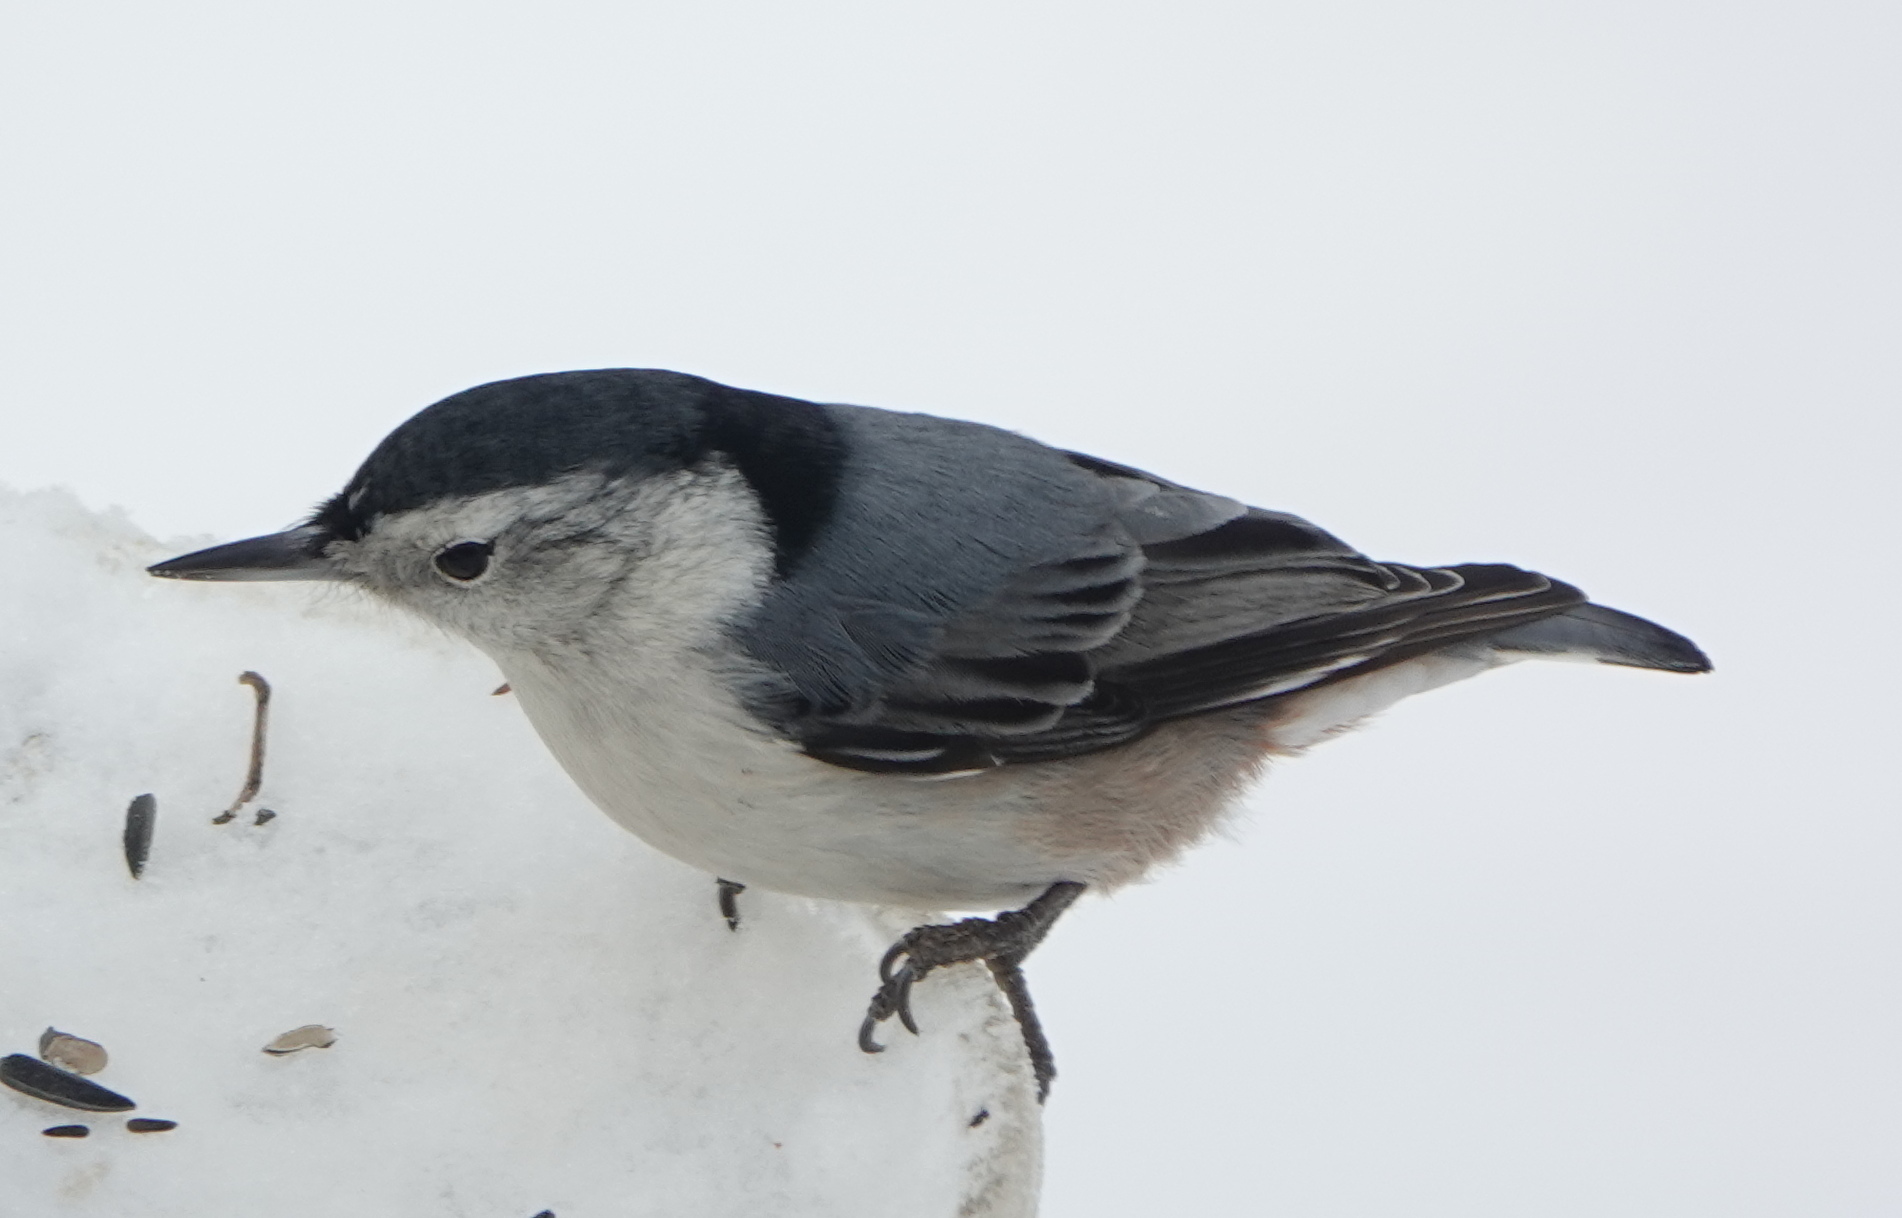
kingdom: Animalia
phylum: Chordata
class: Aves
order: Passeriformes
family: Sittidae
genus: Sitta
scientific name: Sitta carolinensis
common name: White-breasted nuthatch
